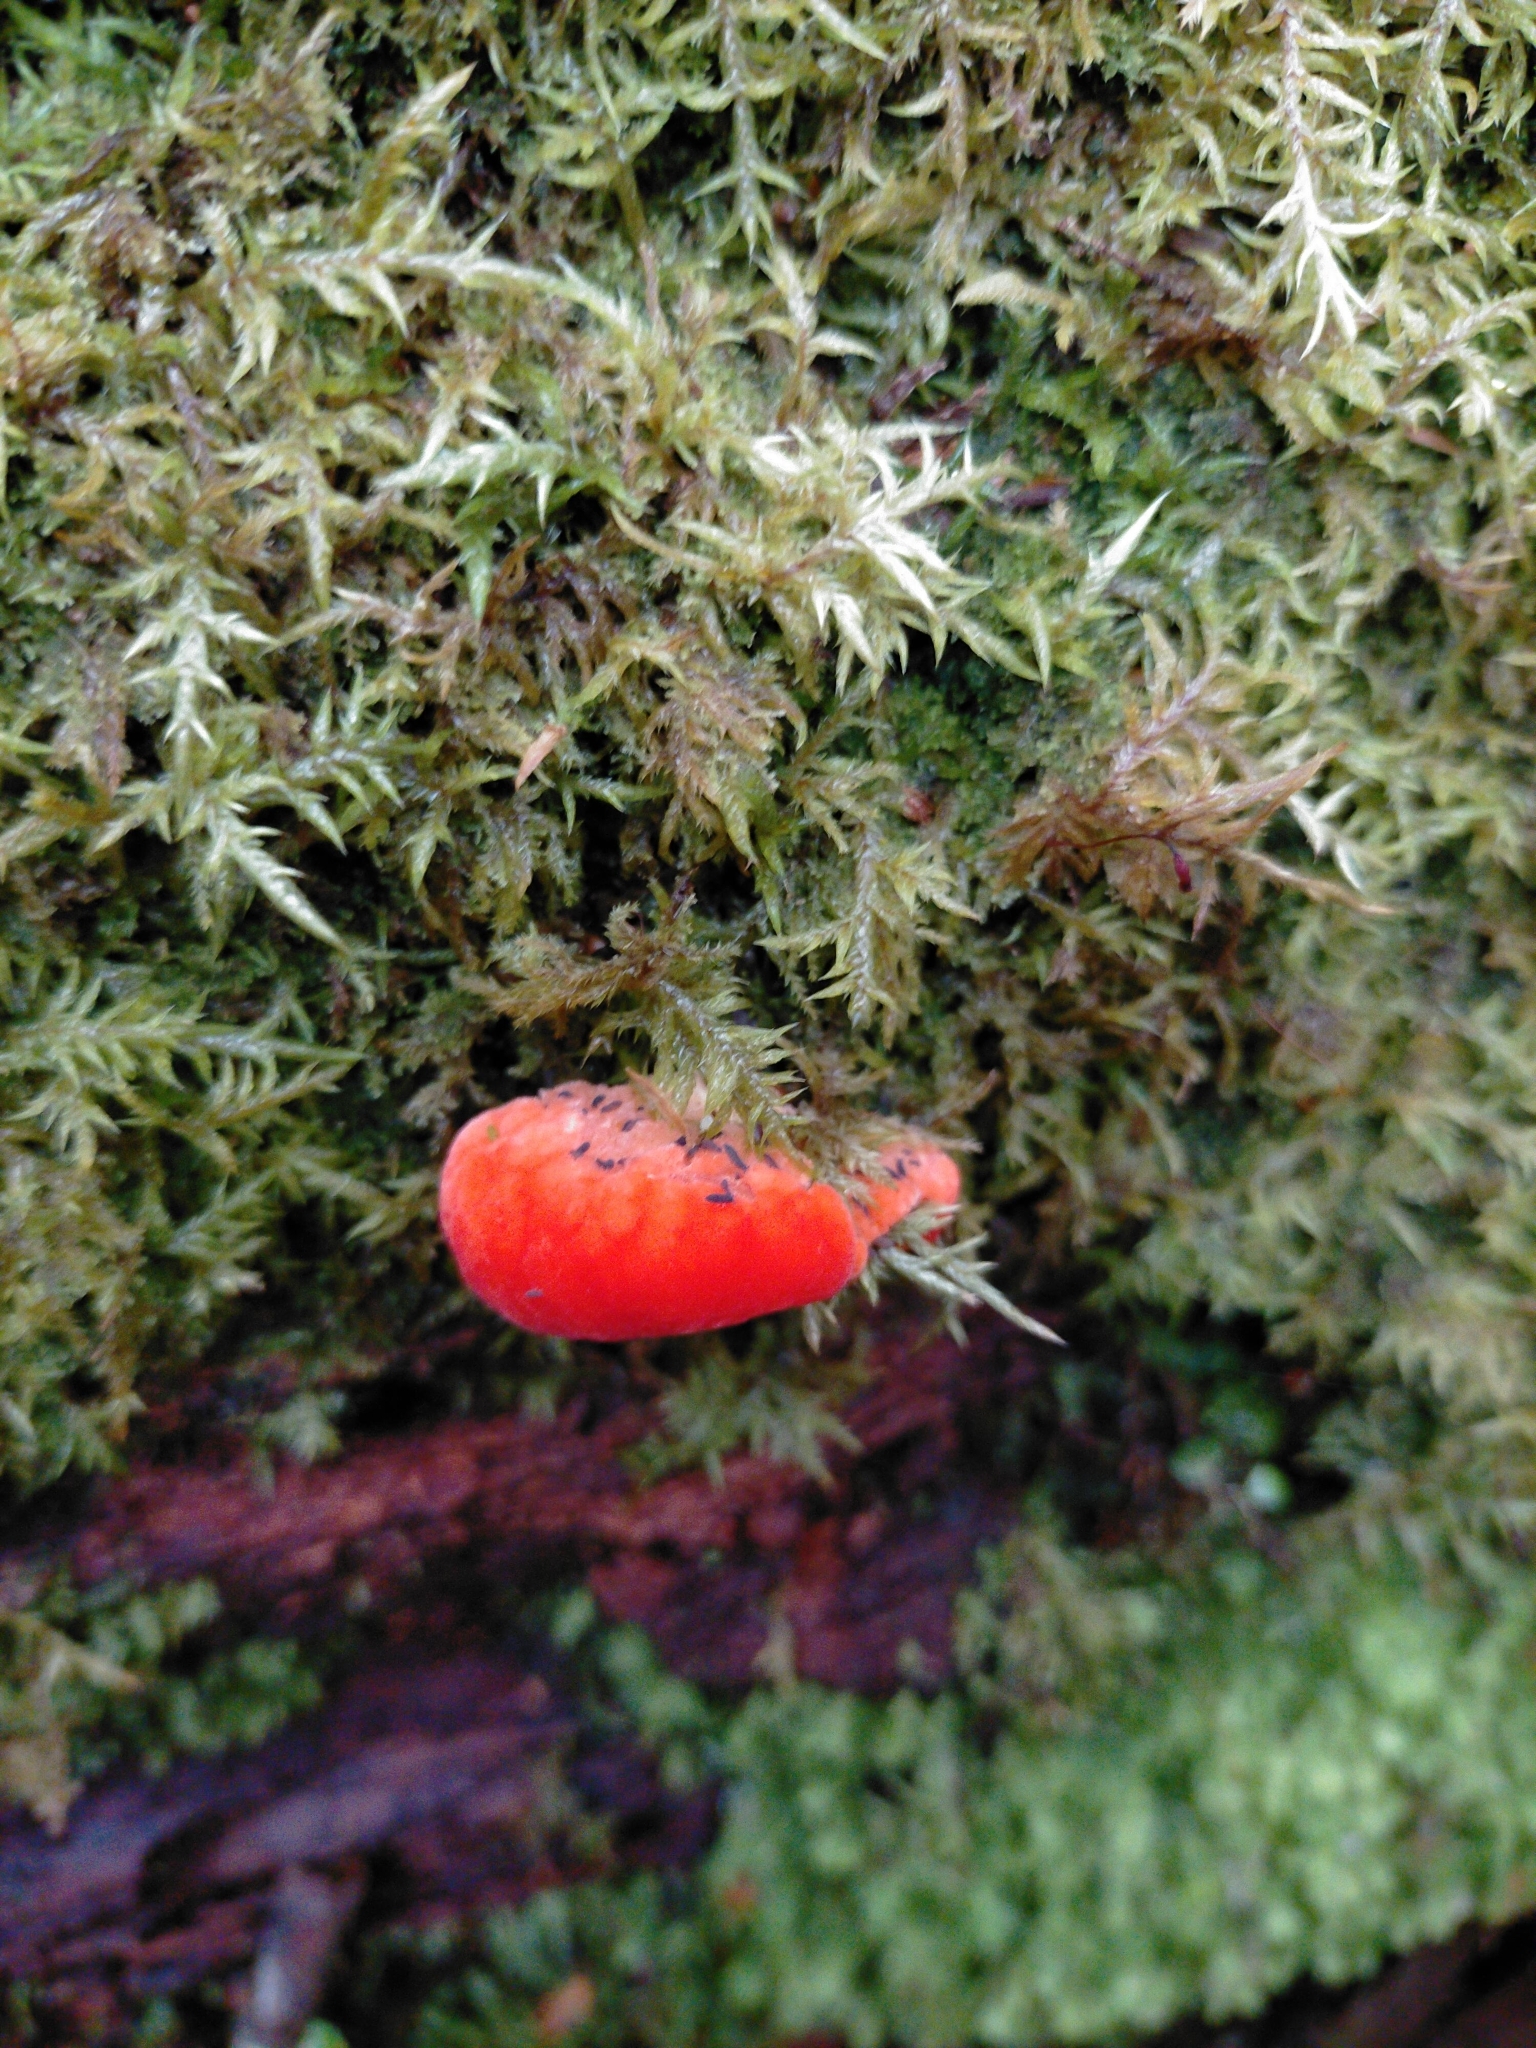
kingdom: Fungi
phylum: Basidiomycota
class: Agaricomycetes
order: Polyporales
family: Incrustoporiaceae
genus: Tyromyces
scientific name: Tyromyces pulcherrimus
